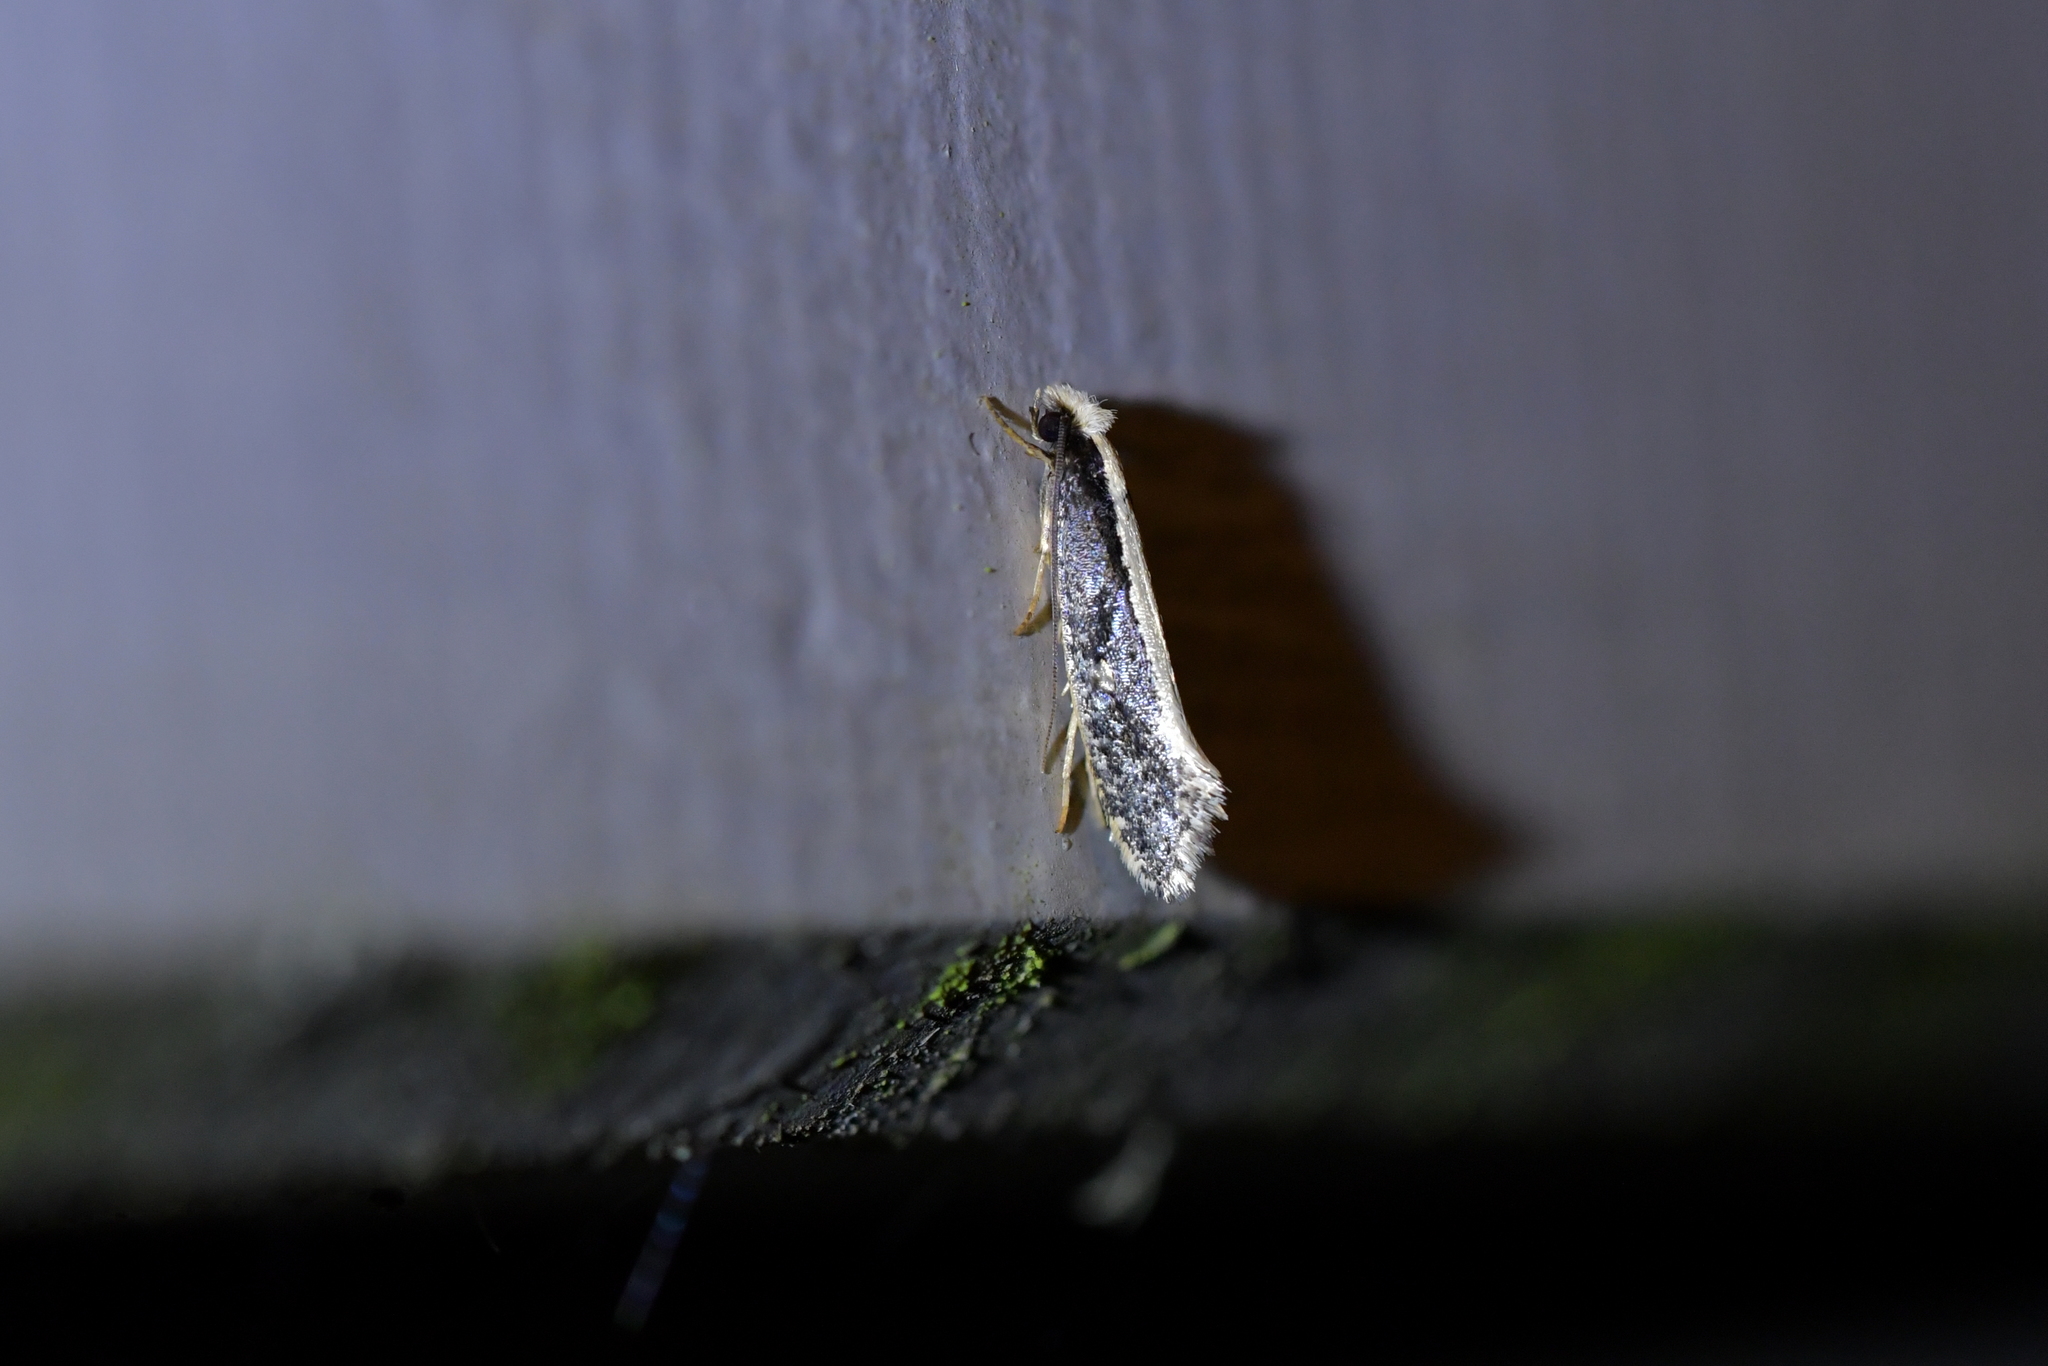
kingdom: Animalia
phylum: Arthropoda
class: Insecta
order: Lepidoptera
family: Tineidae
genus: Monopis
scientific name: Monopis ethelella
